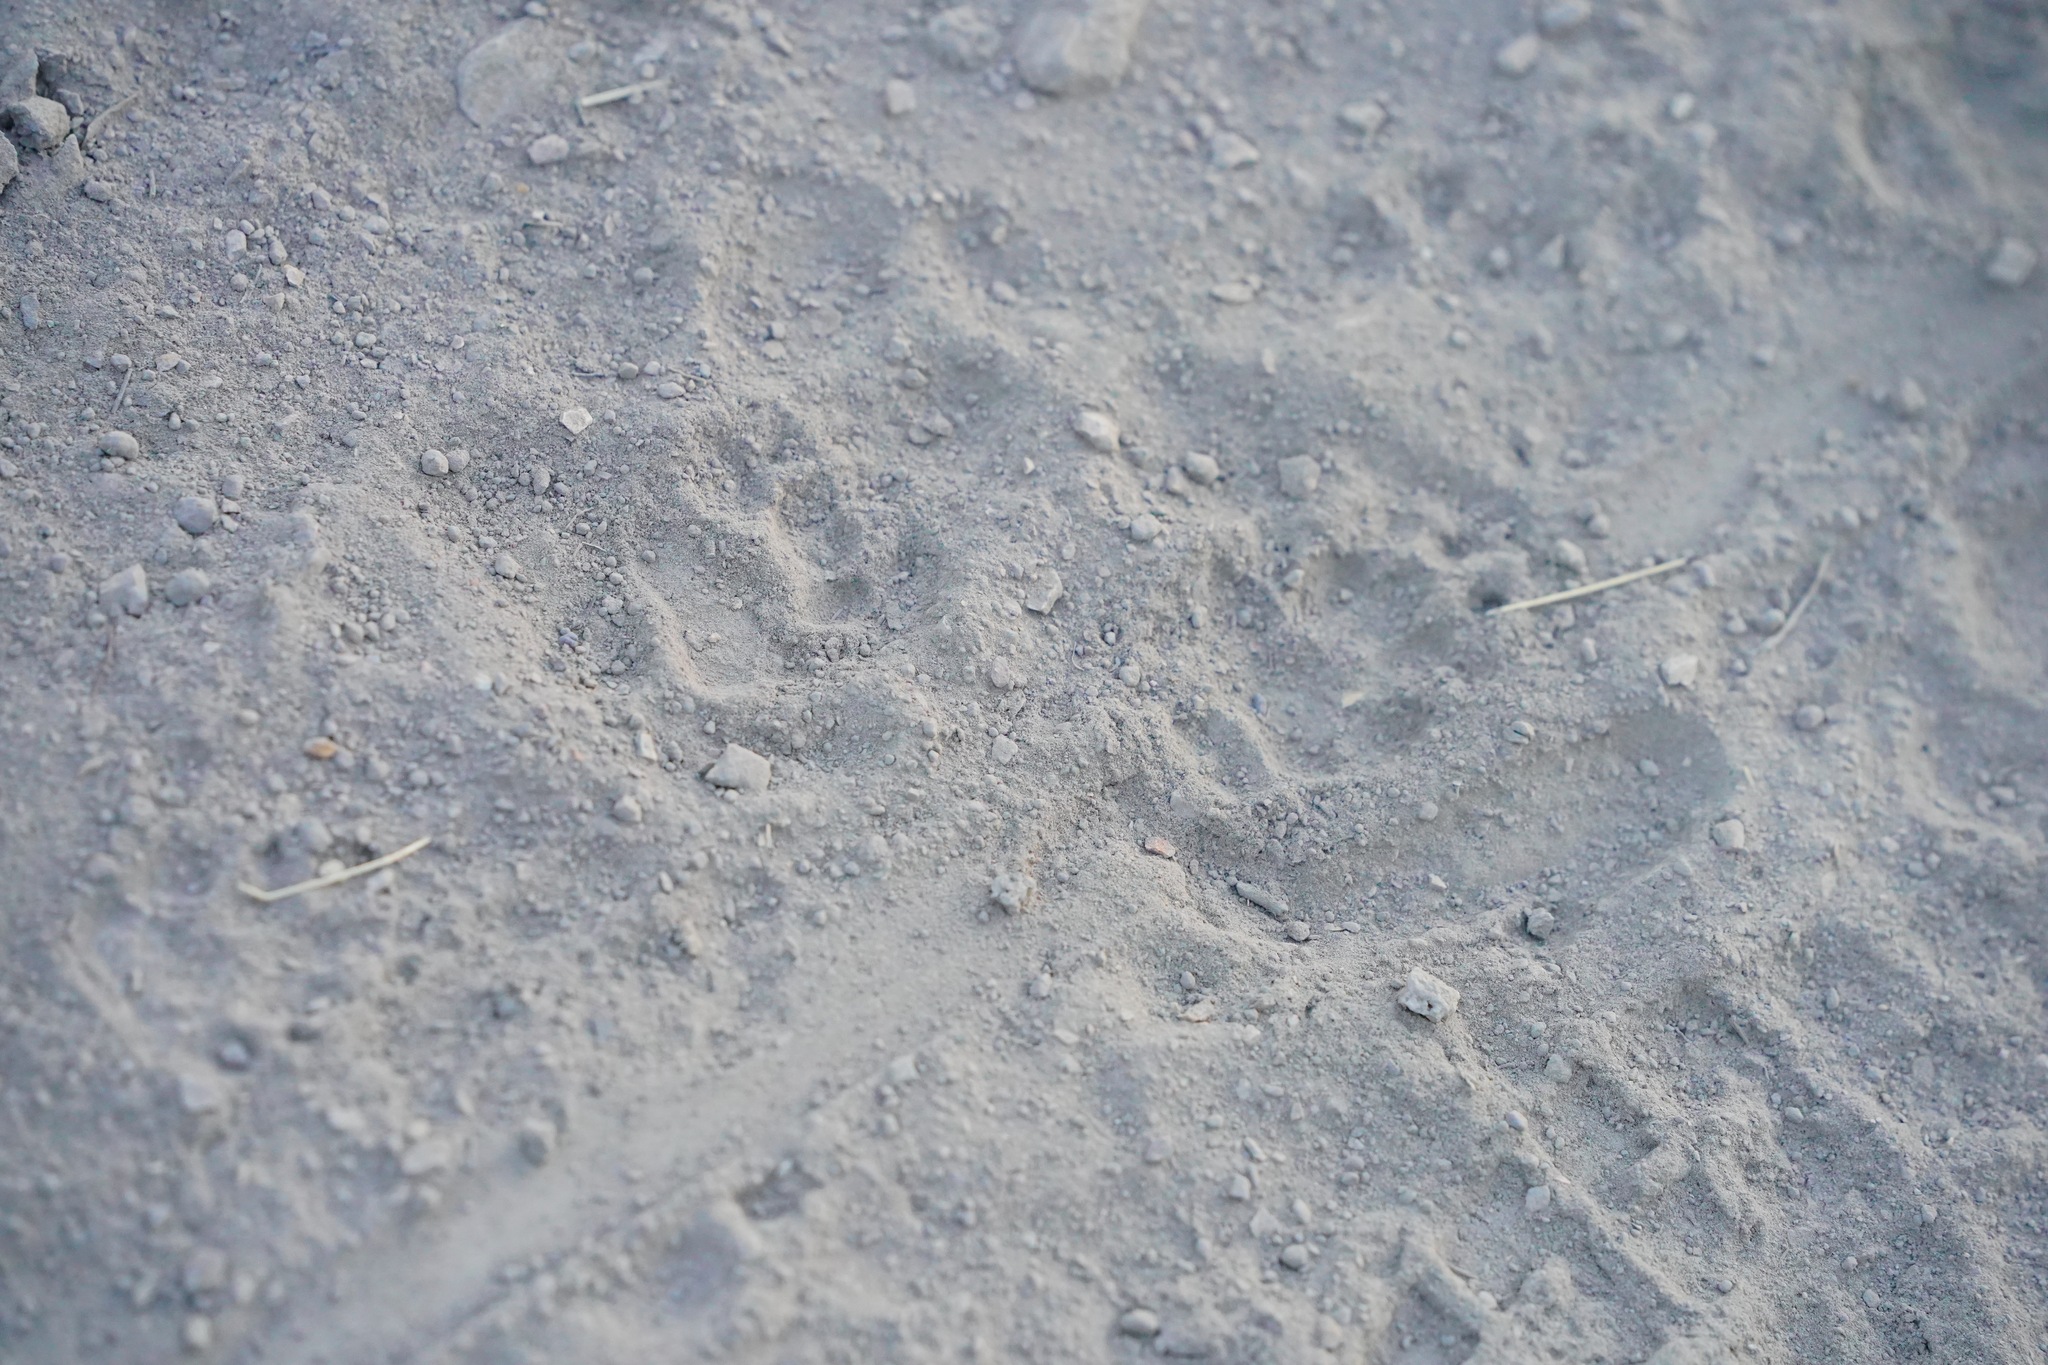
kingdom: Animalia
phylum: Chordata
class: Mammalia
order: Carnivora
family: Mephitidae
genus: Mephitis
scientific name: Mephitis mephitis
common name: Striped skunk
